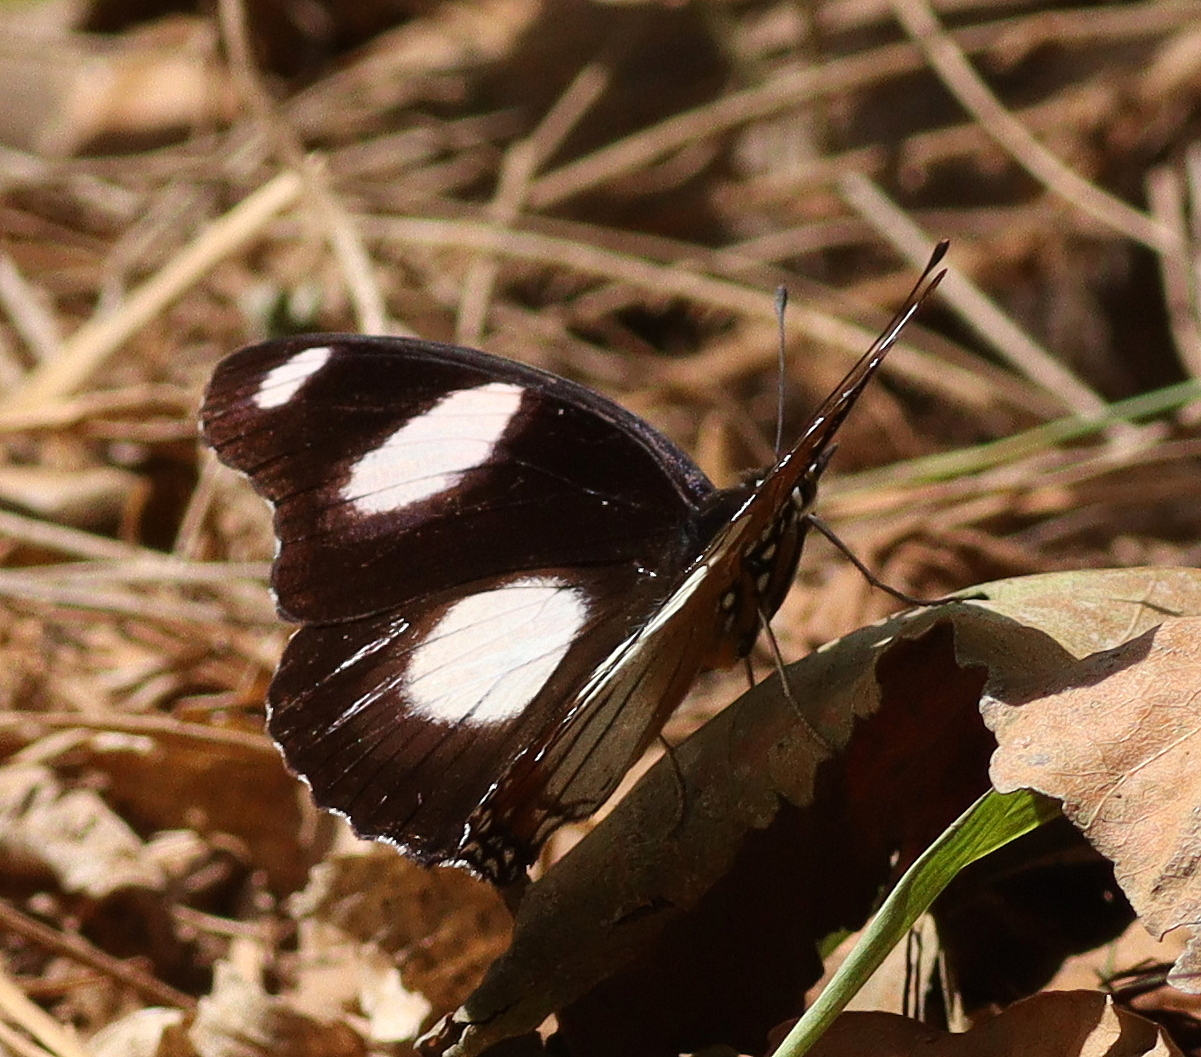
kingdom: Animalia
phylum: Arthropoda
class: Insecta
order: Lepidoptera
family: Nymphalidae
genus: Hypolimnas
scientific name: Hypolimnas misippus
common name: False plain tiger
